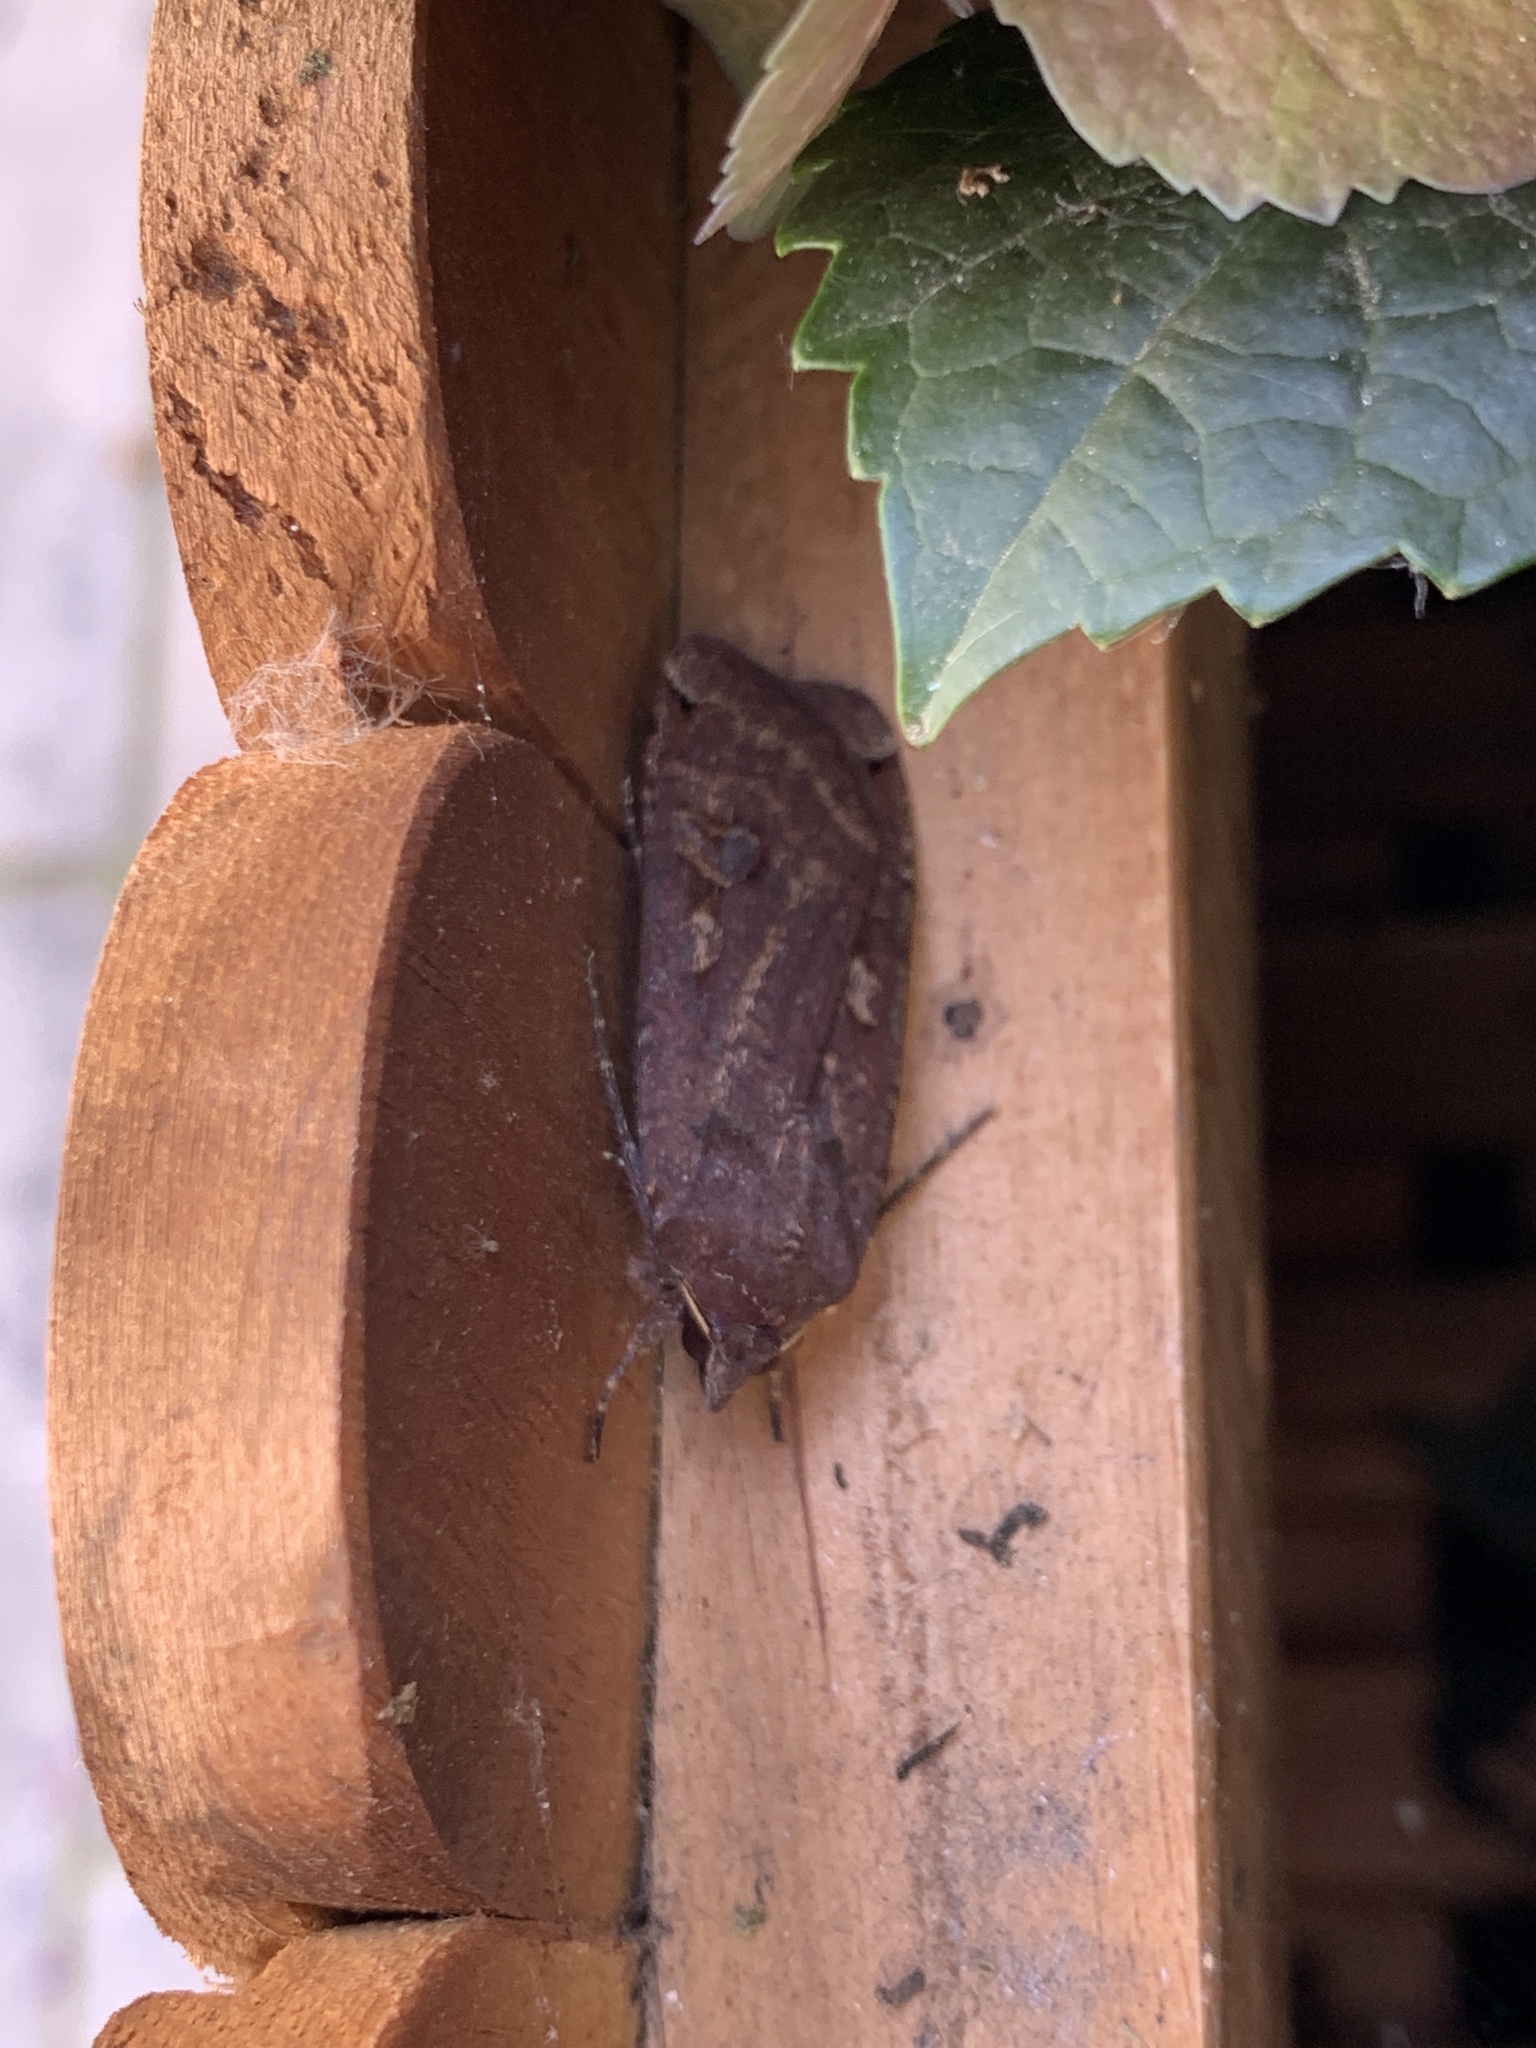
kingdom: Animalia
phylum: Arthropoda
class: Insecta
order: Lepidoptera
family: Noctuidae
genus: Noctua
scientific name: Noctua pronuba
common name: Large yellow underwing
